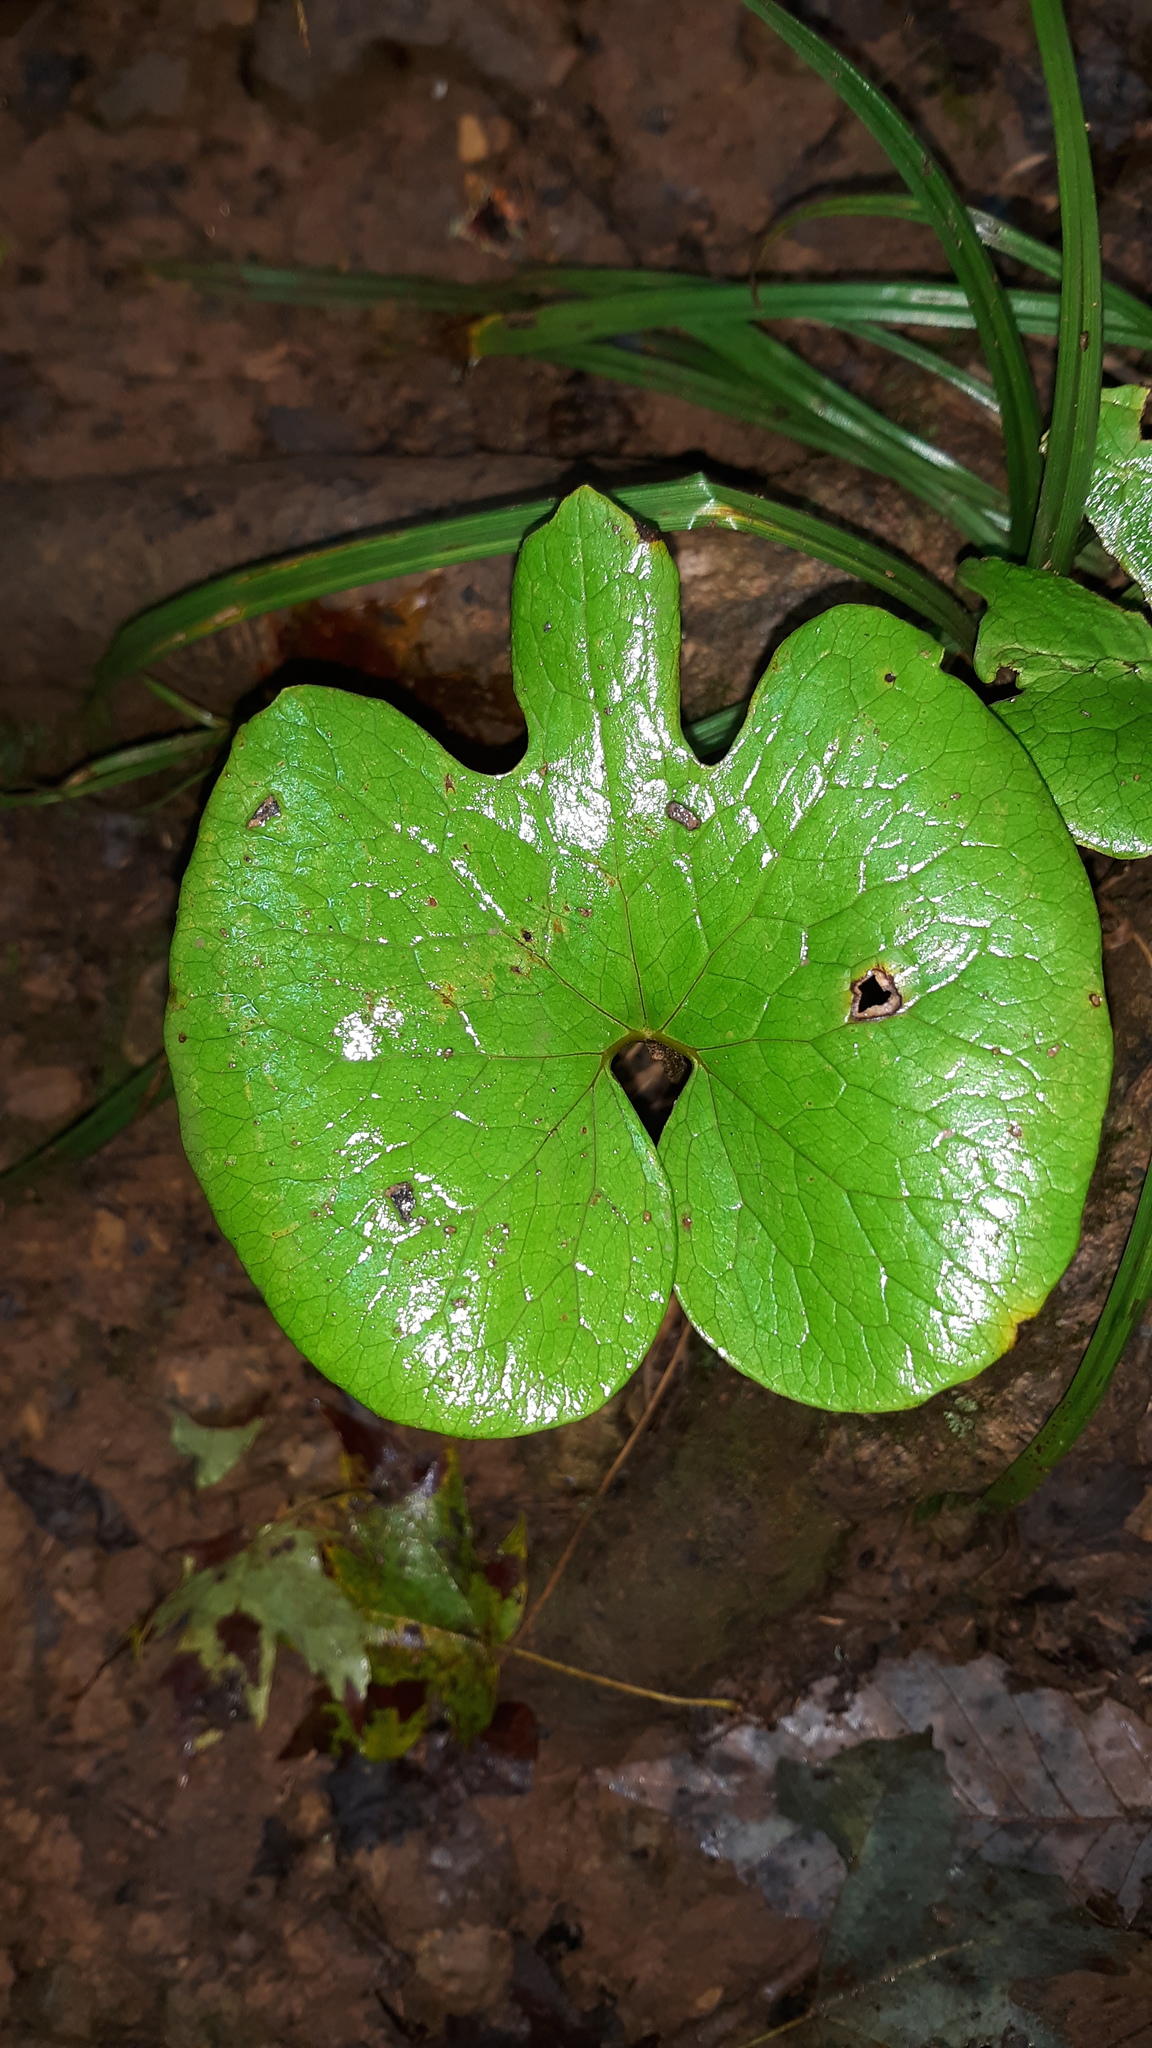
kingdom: Plantae
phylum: Tracheophyta
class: Magnoliopsida
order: Ranunculales
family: Papaveraceae
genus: Sanguinaria
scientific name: Sanguinaria canadensis
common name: Bloodroot
